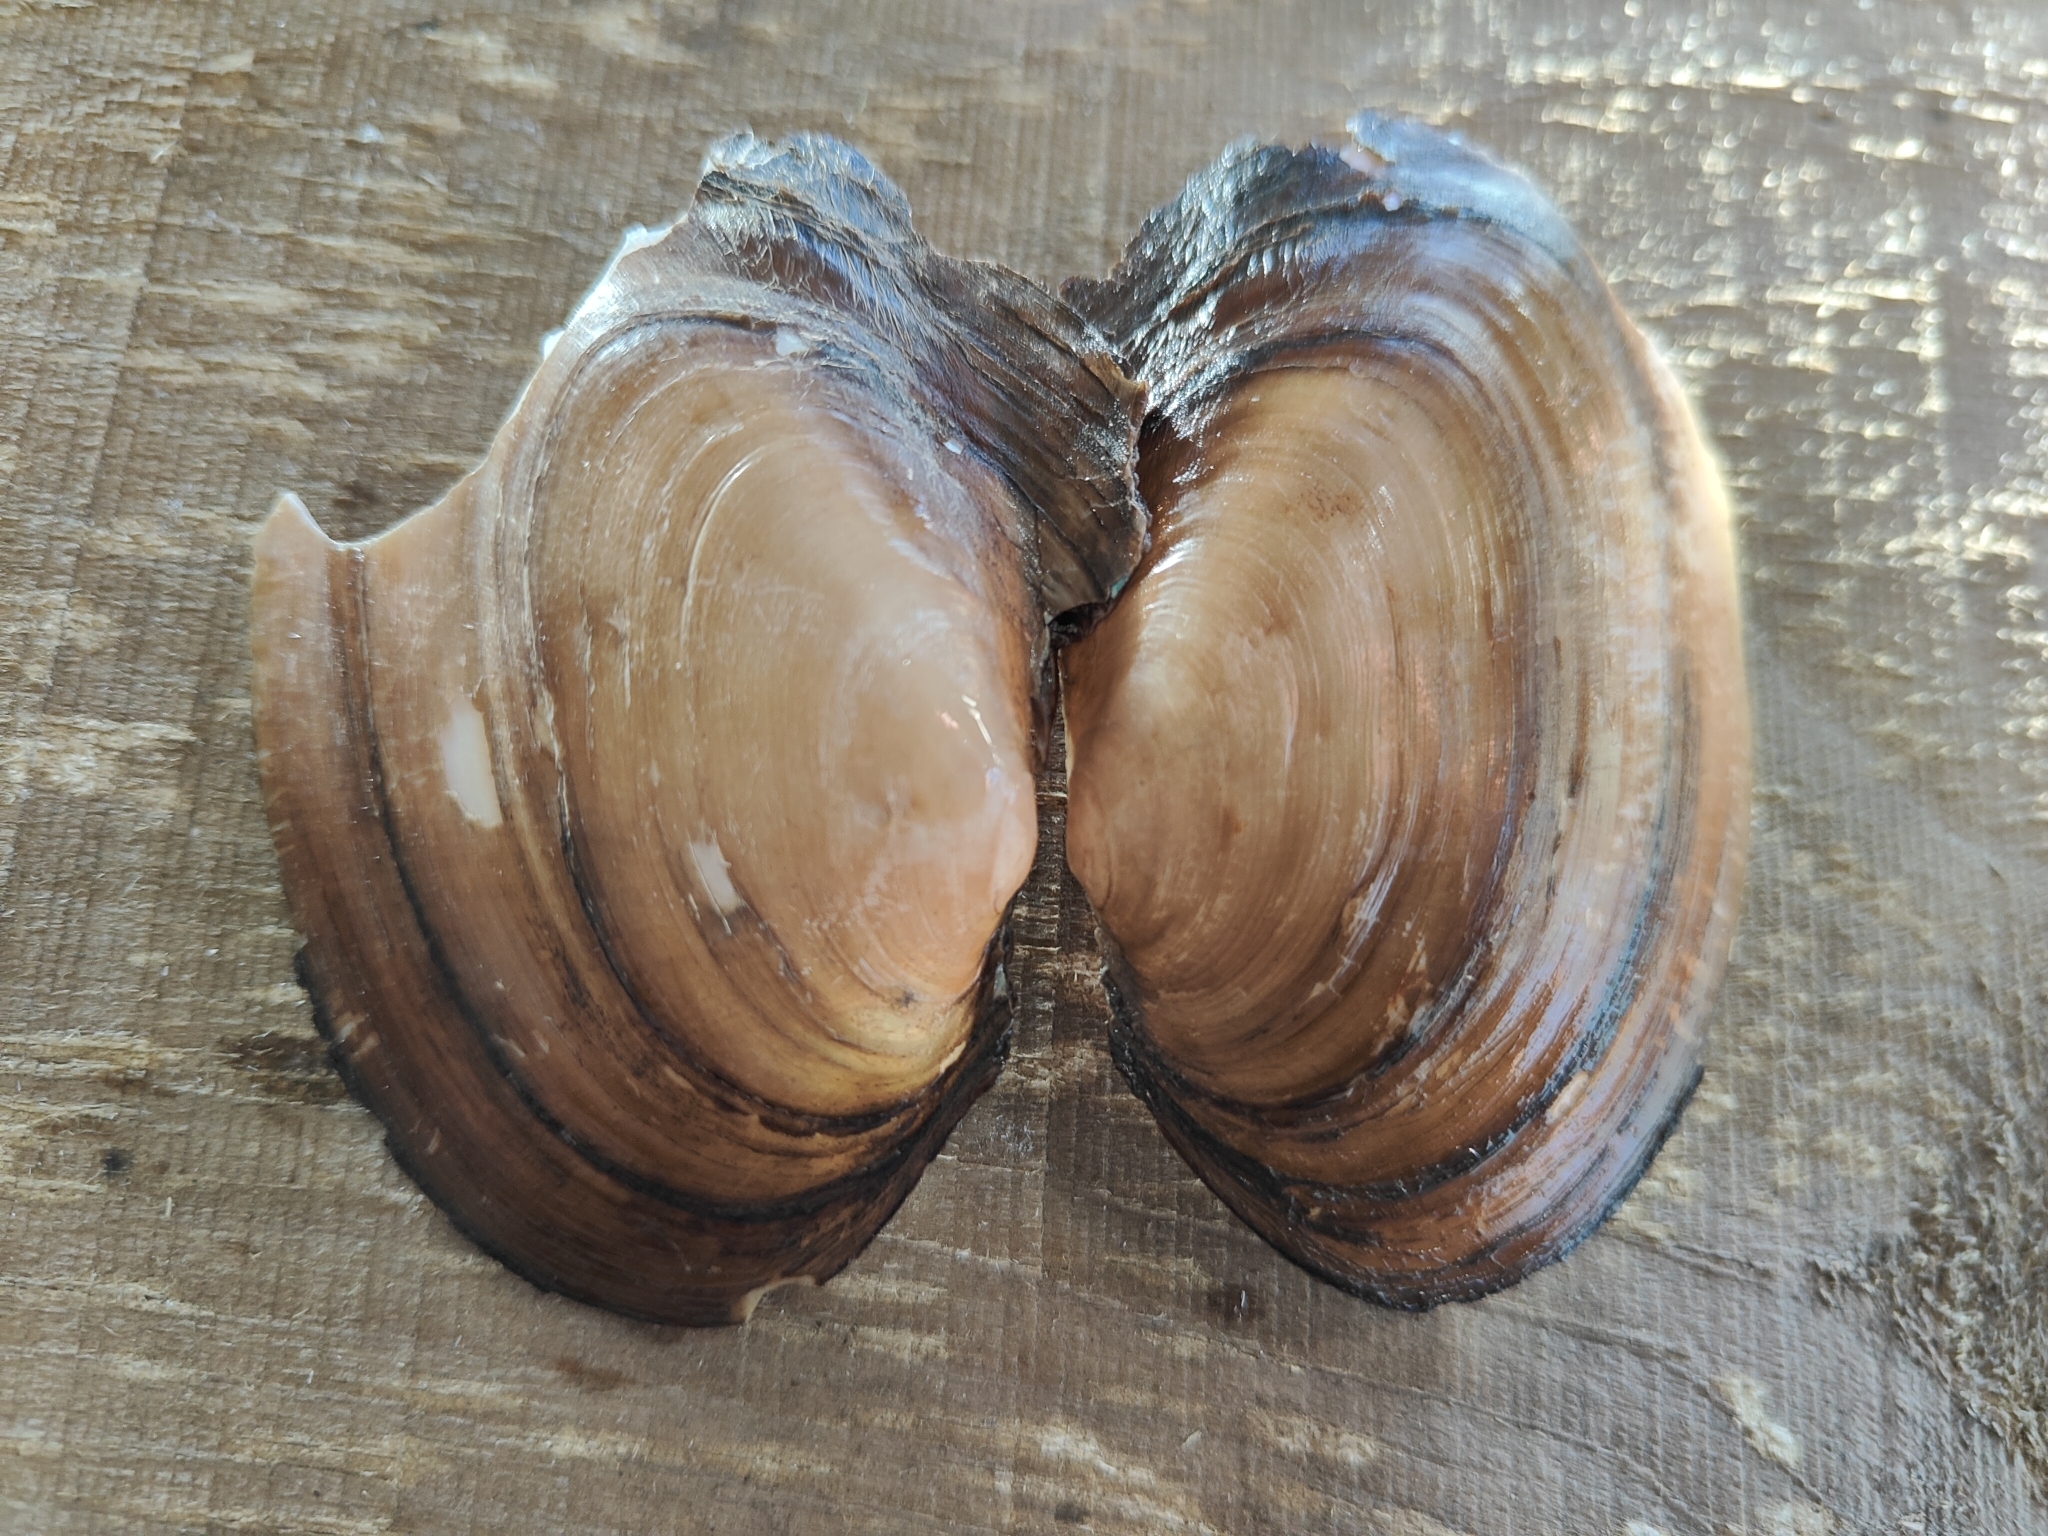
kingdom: Animalia
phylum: Mollusca
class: Bivalvia
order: Unionida
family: Unionidae
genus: Potamilus
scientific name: Potamilus ohiensis
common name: Pink papershell
